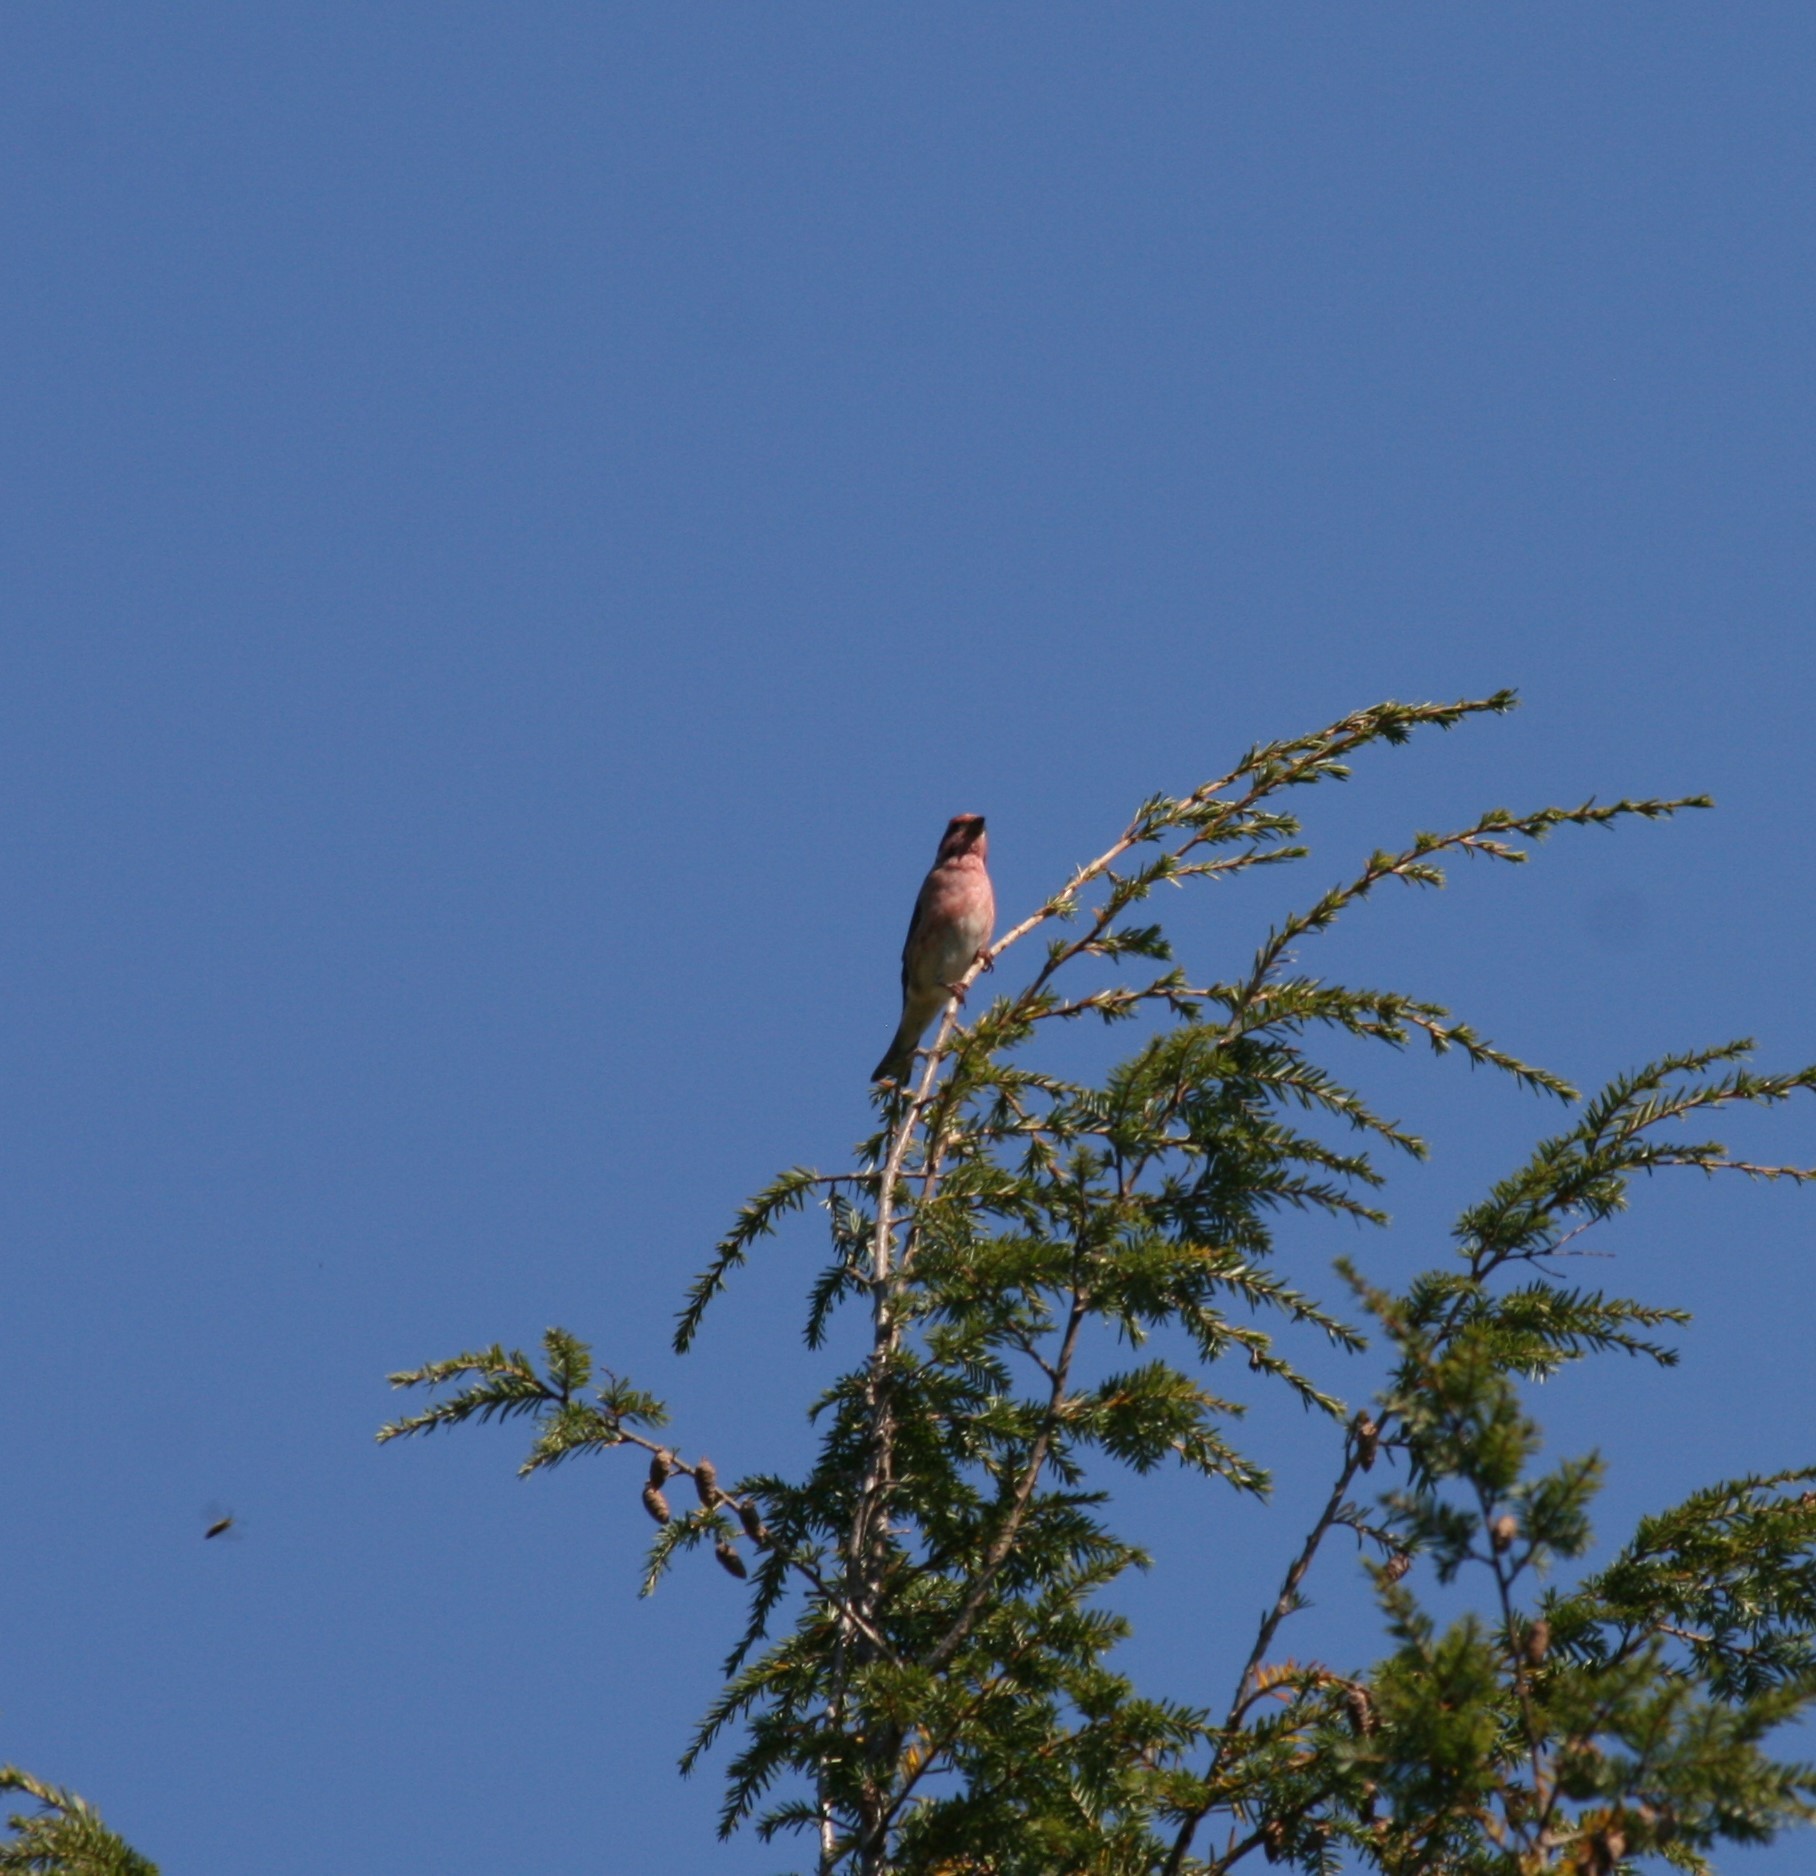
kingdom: Animalia
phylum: Chordata
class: Aves
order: Passeriformes
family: Fringillidae
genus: Haemorhous
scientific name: Haemorhous purpureus
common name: Purple finch
